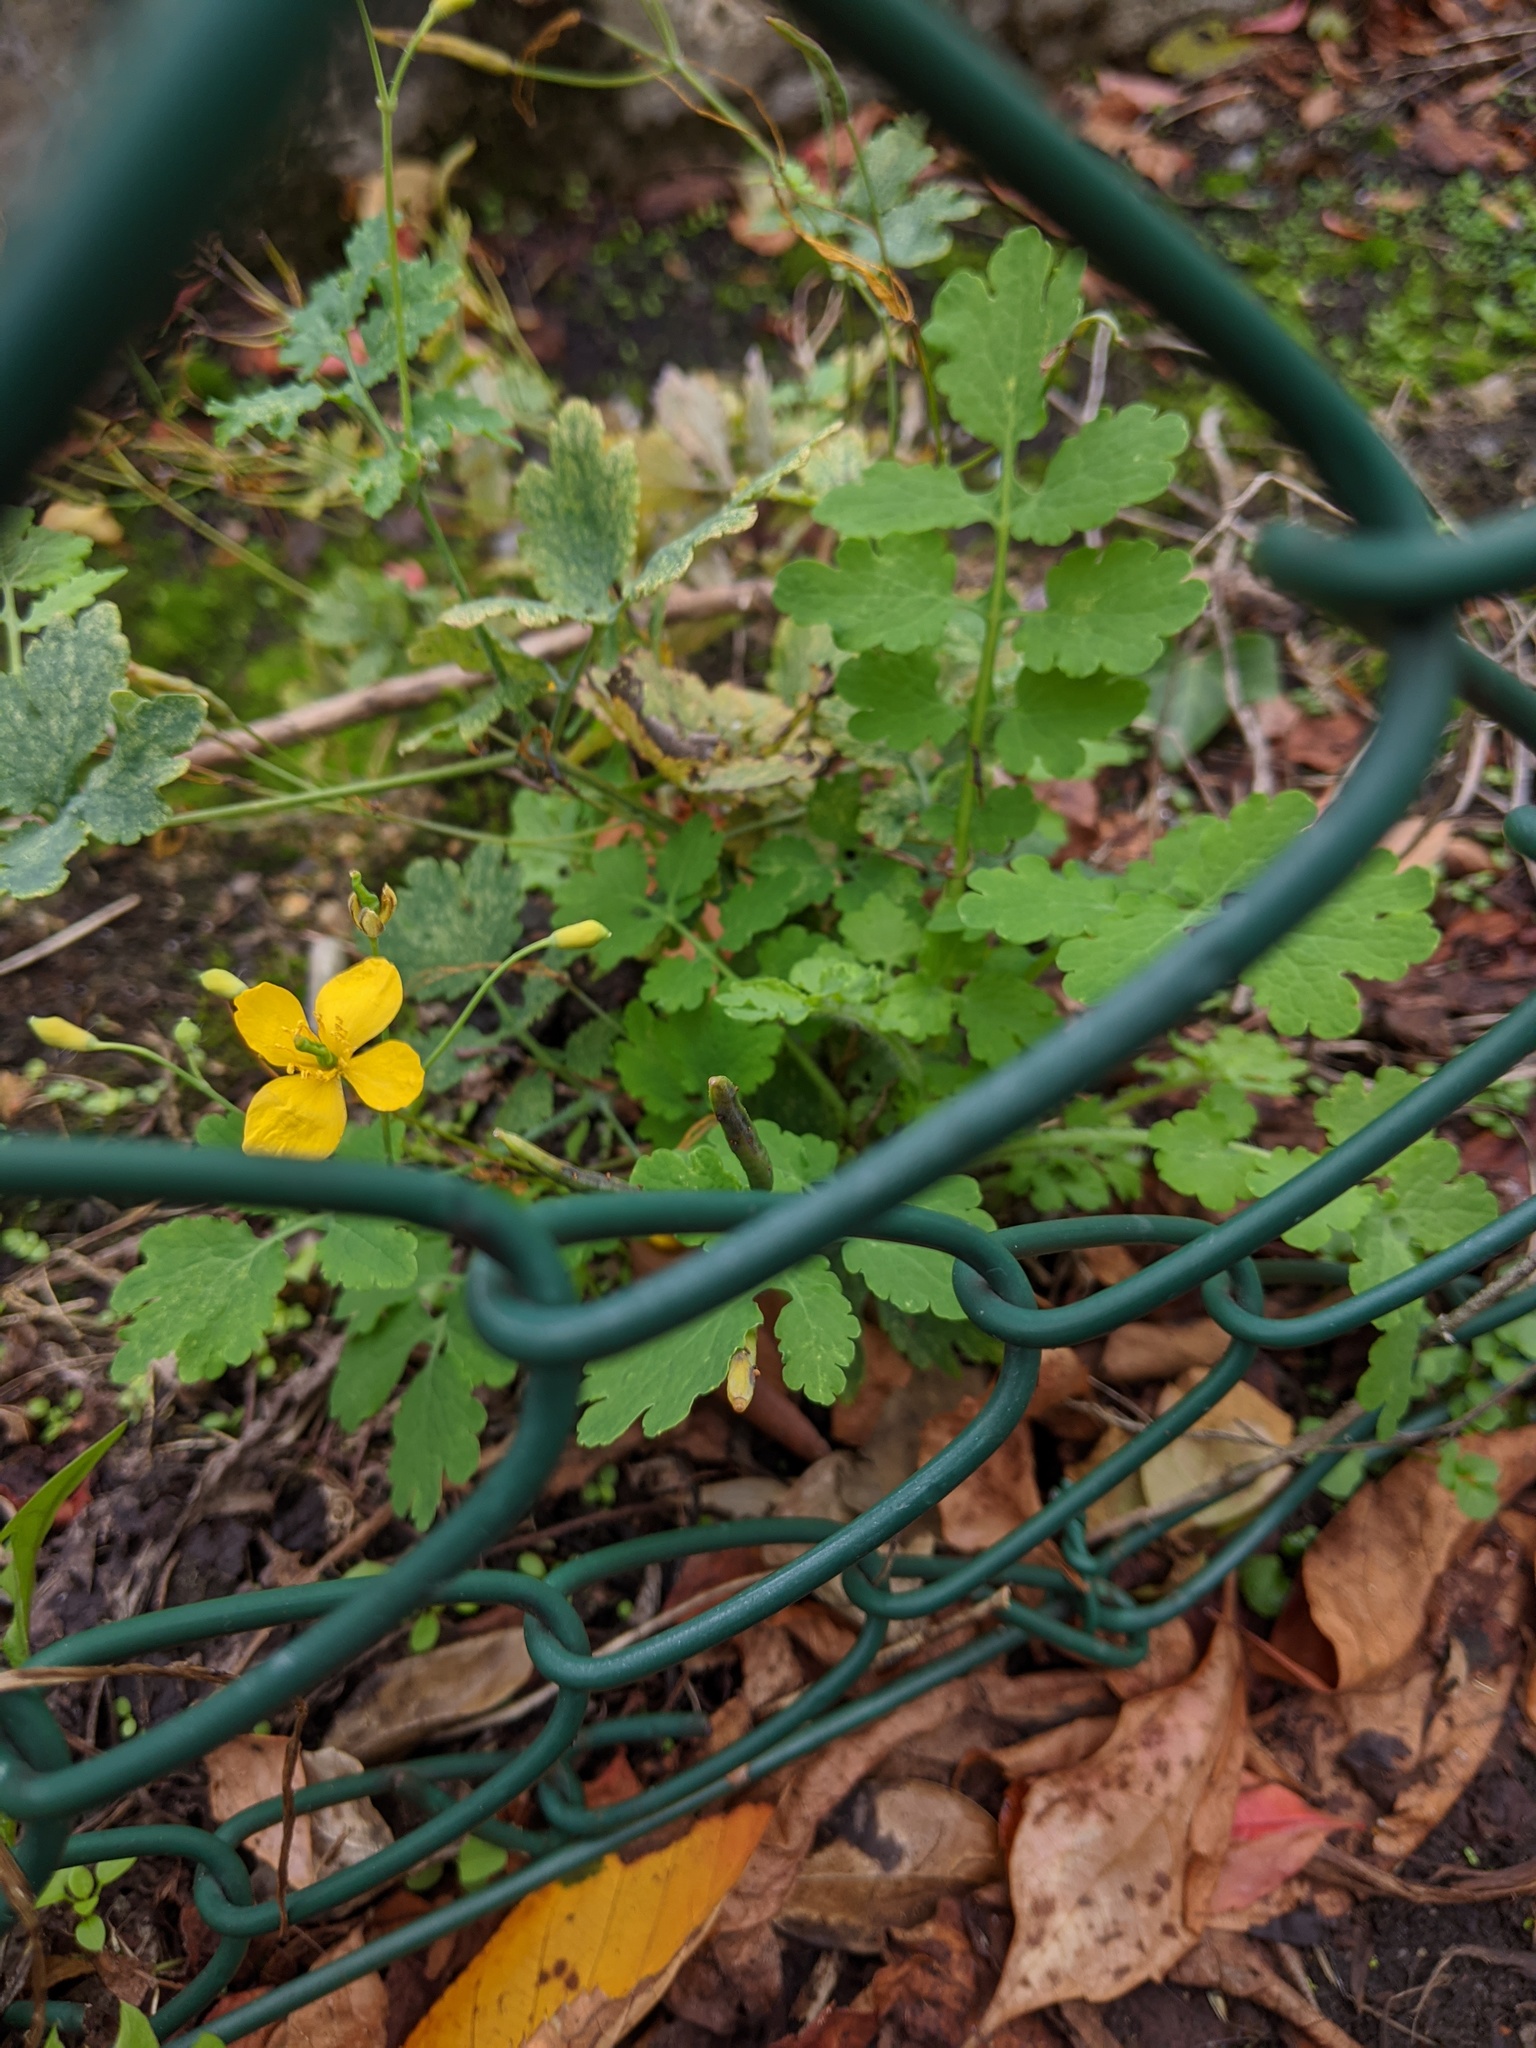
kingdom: Plantae
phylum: Tracheophyta
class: Magnoliopsida
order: Ranunculales
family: Papaveraceae
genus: Chelidonium
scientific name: Chelidonium majus
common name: Greater celandine
